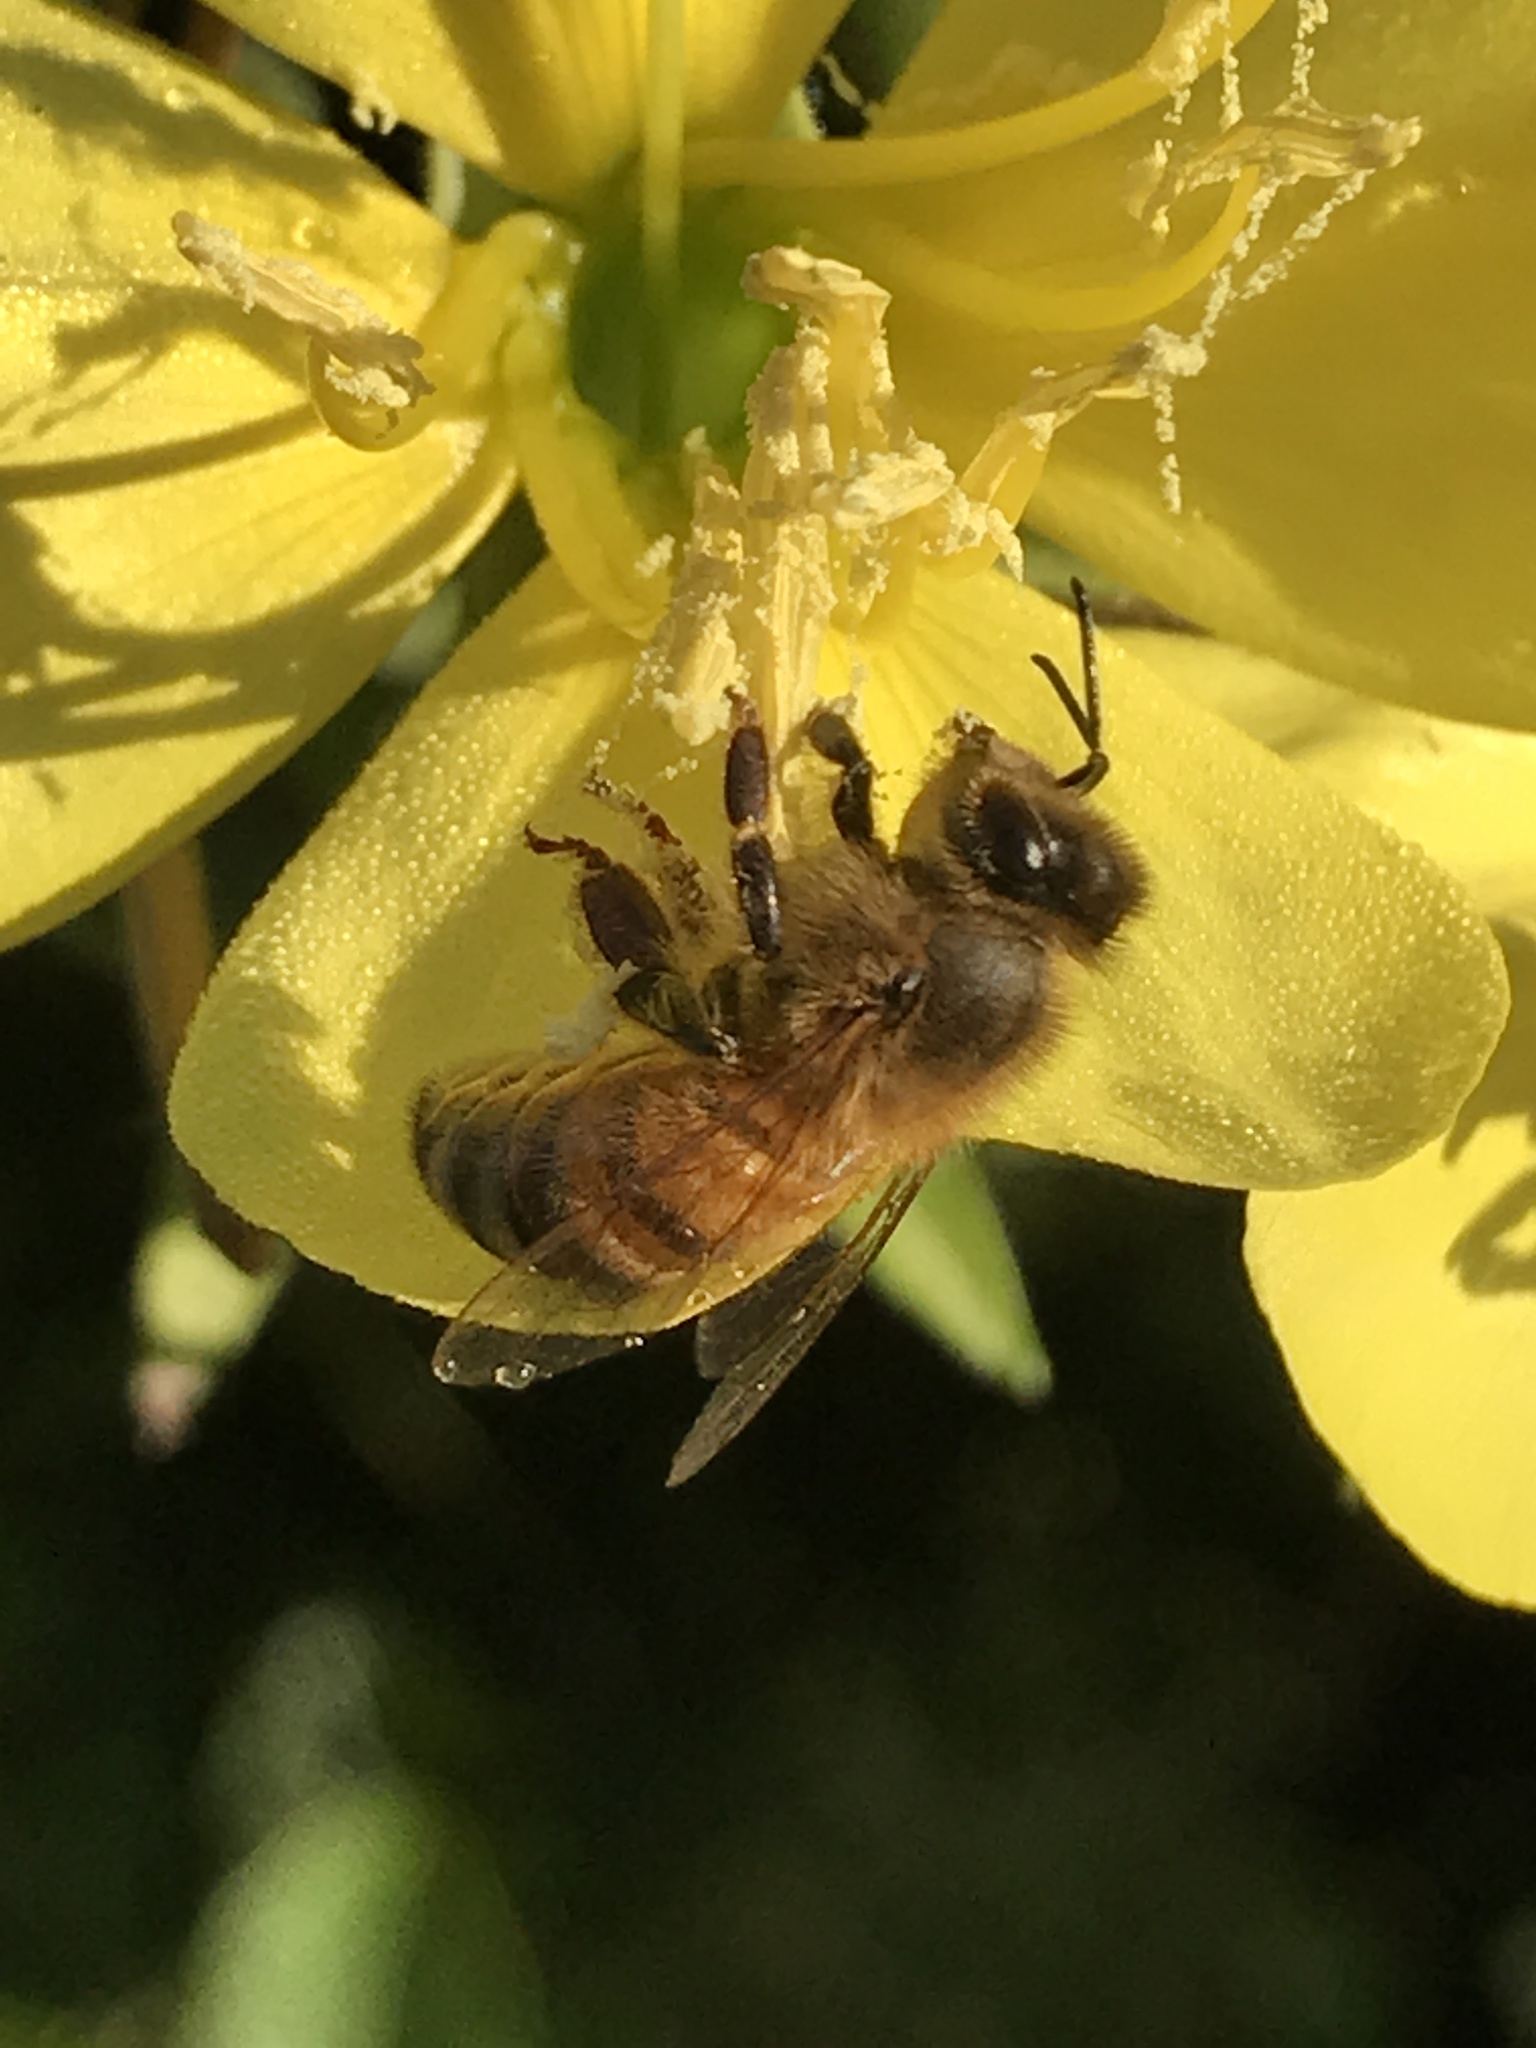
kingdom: Animalia
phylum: Arthropoda
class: Insecta
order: Hymenoptera
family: Apidae
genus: Apis
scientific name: Apis mellifera
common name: Honey bee
